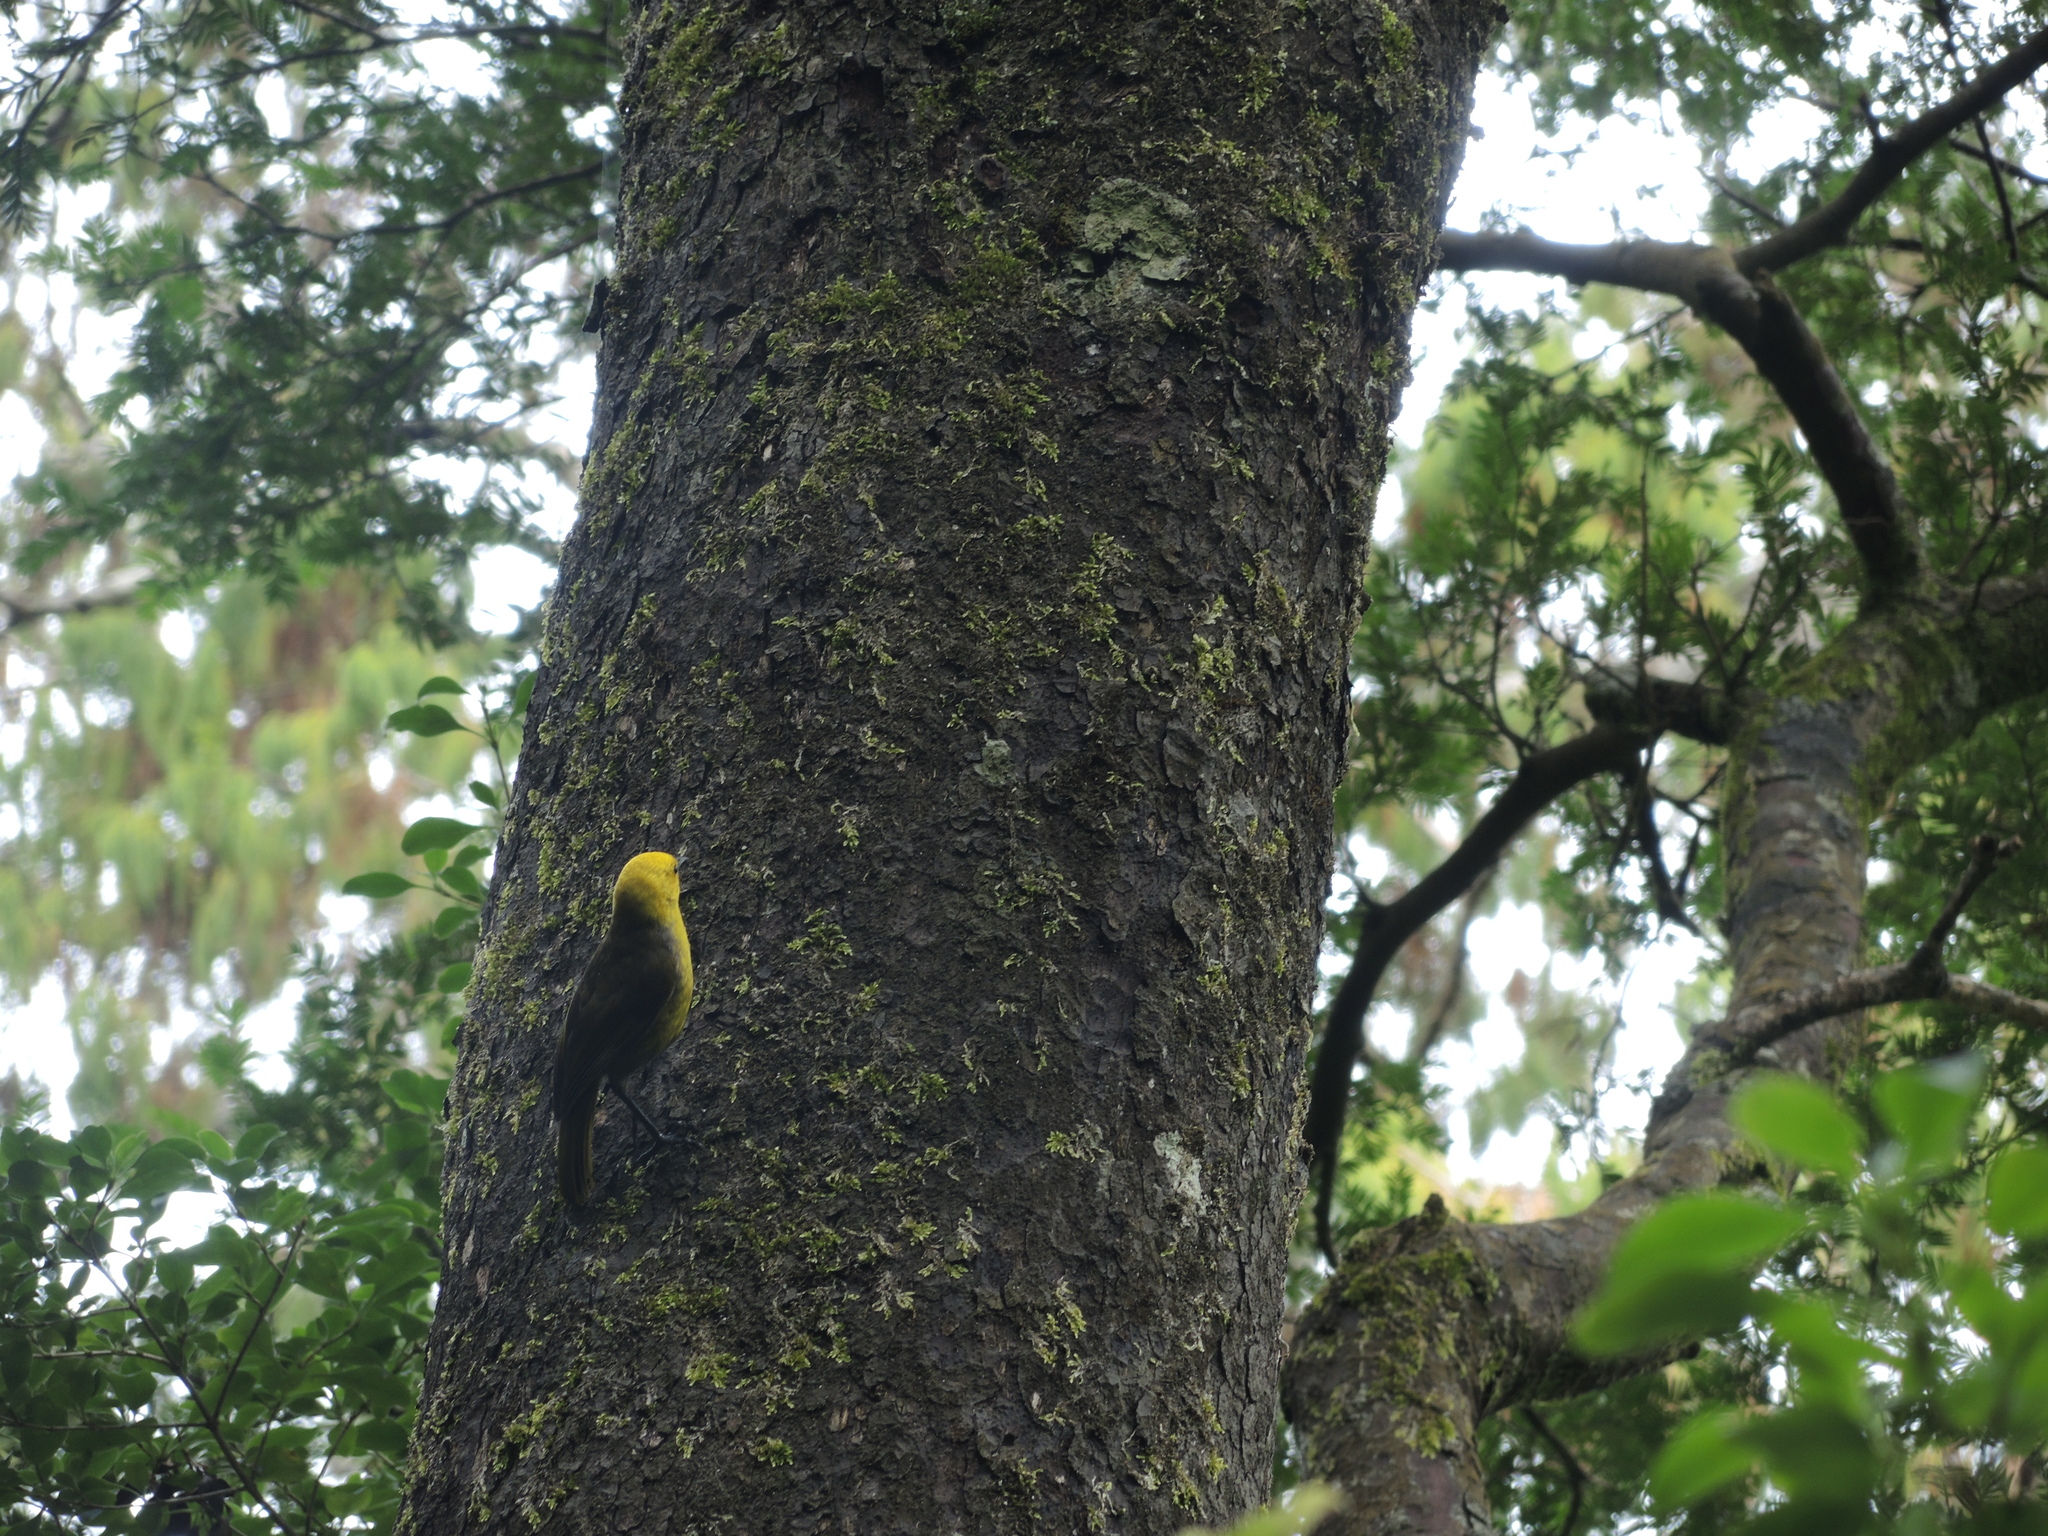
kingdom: Animalia
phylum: Chordata
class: Aves
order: Passeriformes
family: Acanthizidae
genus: Mohoua
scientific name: Mohoua ochrocephala
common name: Yellowhead
